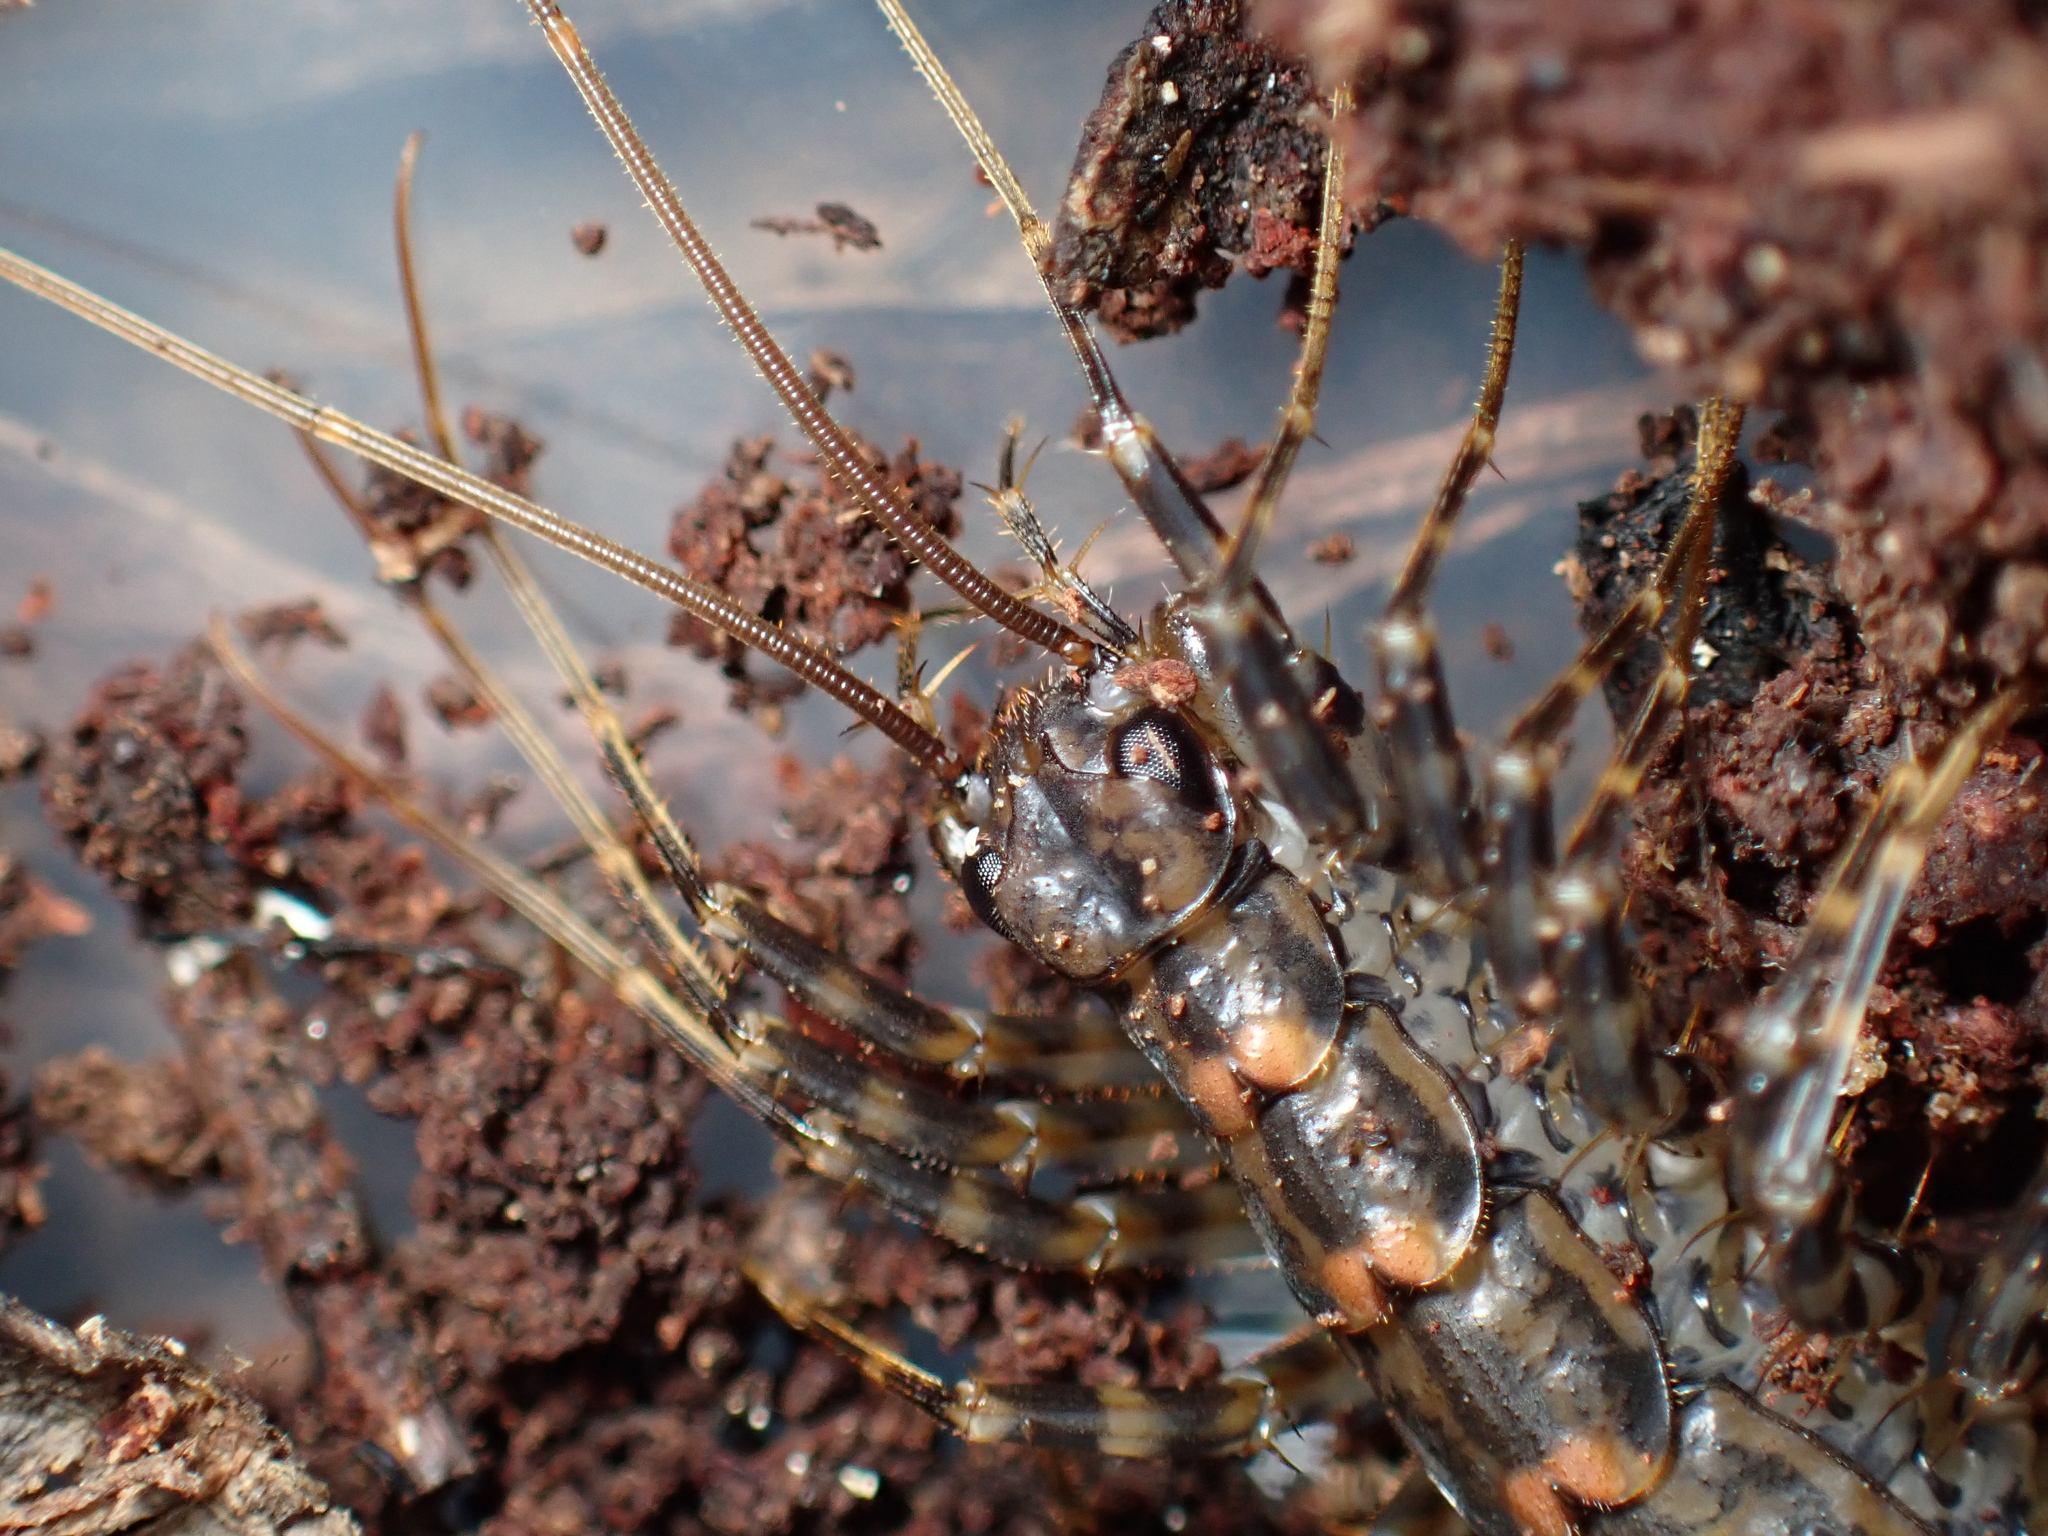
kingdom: Animalia
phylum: Arthropoda
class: Chilopoda
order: Scutigeromorpha
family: Scutigeridae
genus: Allothereua
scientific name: Allothereua maculata
